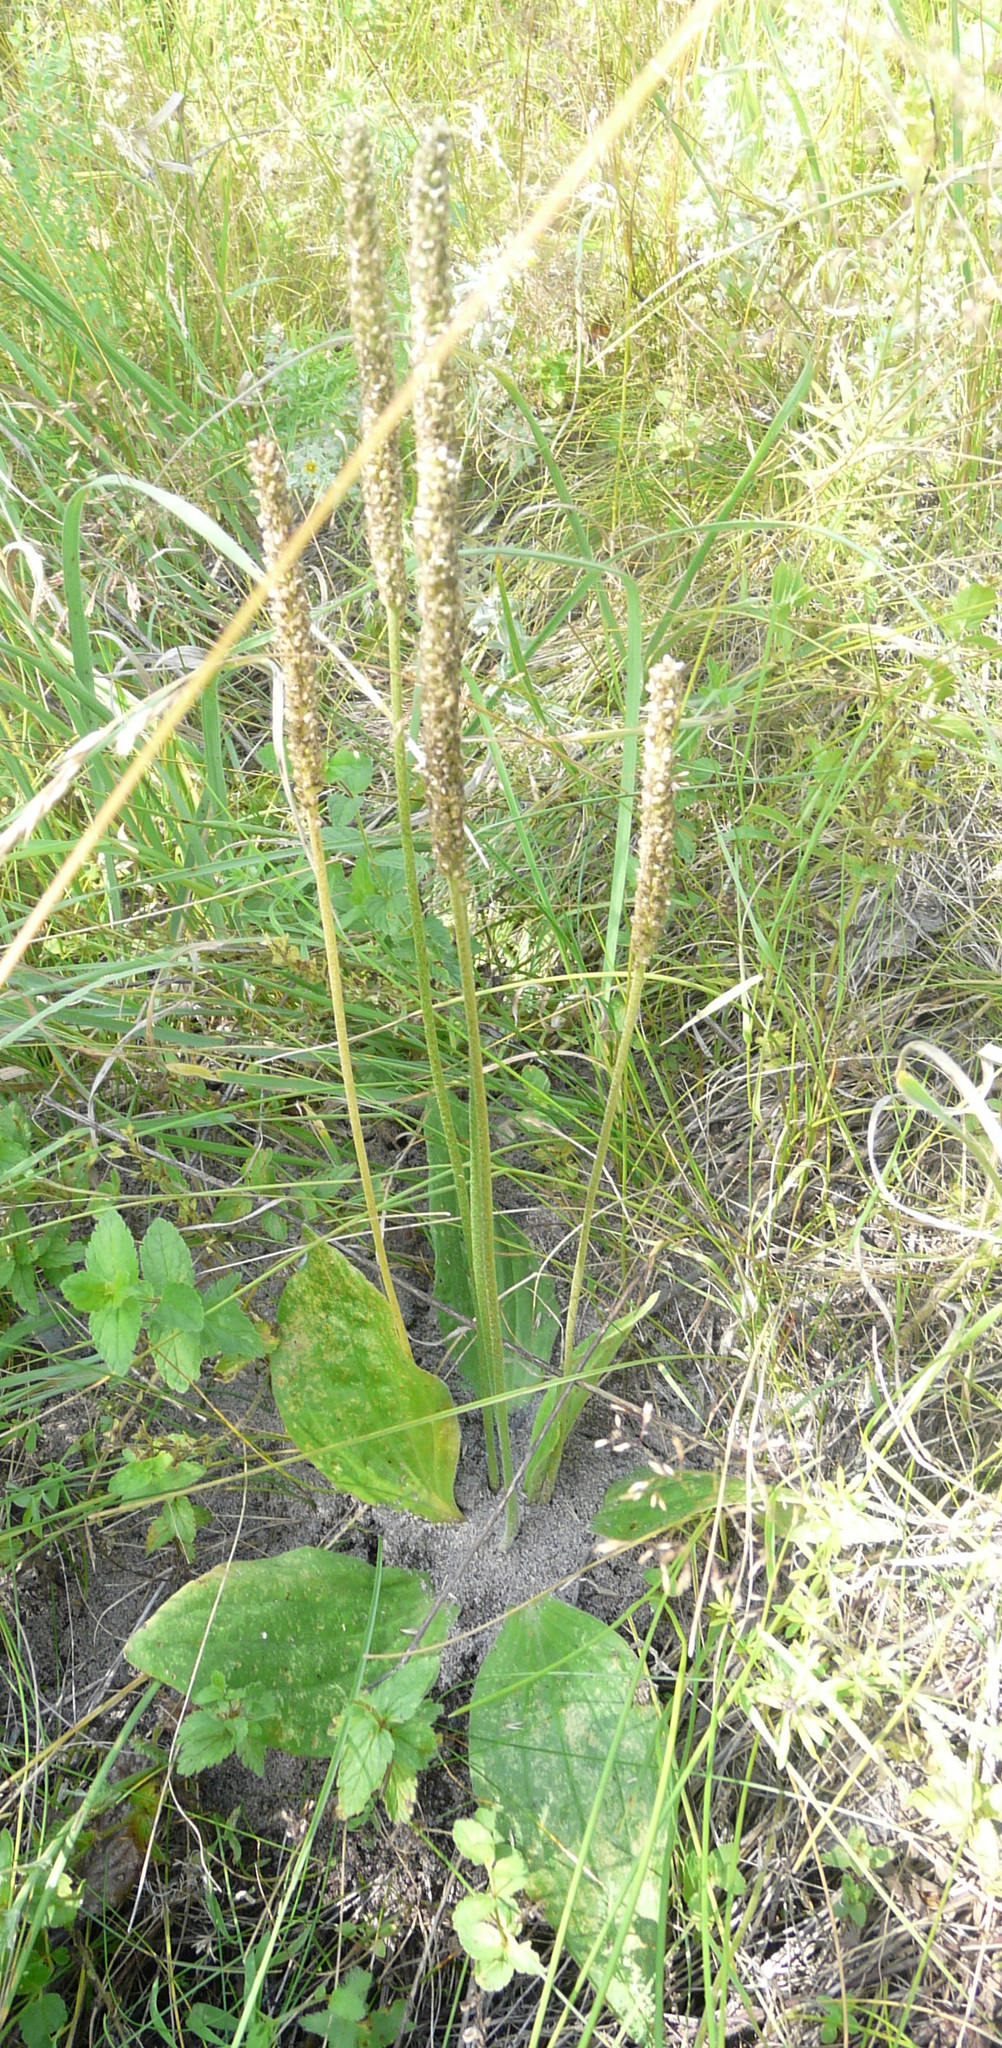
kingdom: Plantae
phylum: Tracheophyta
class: Magnoliopsida
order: Lamiales
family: Plantaginaceae
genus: Plantago
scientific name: Plantago urvillei
